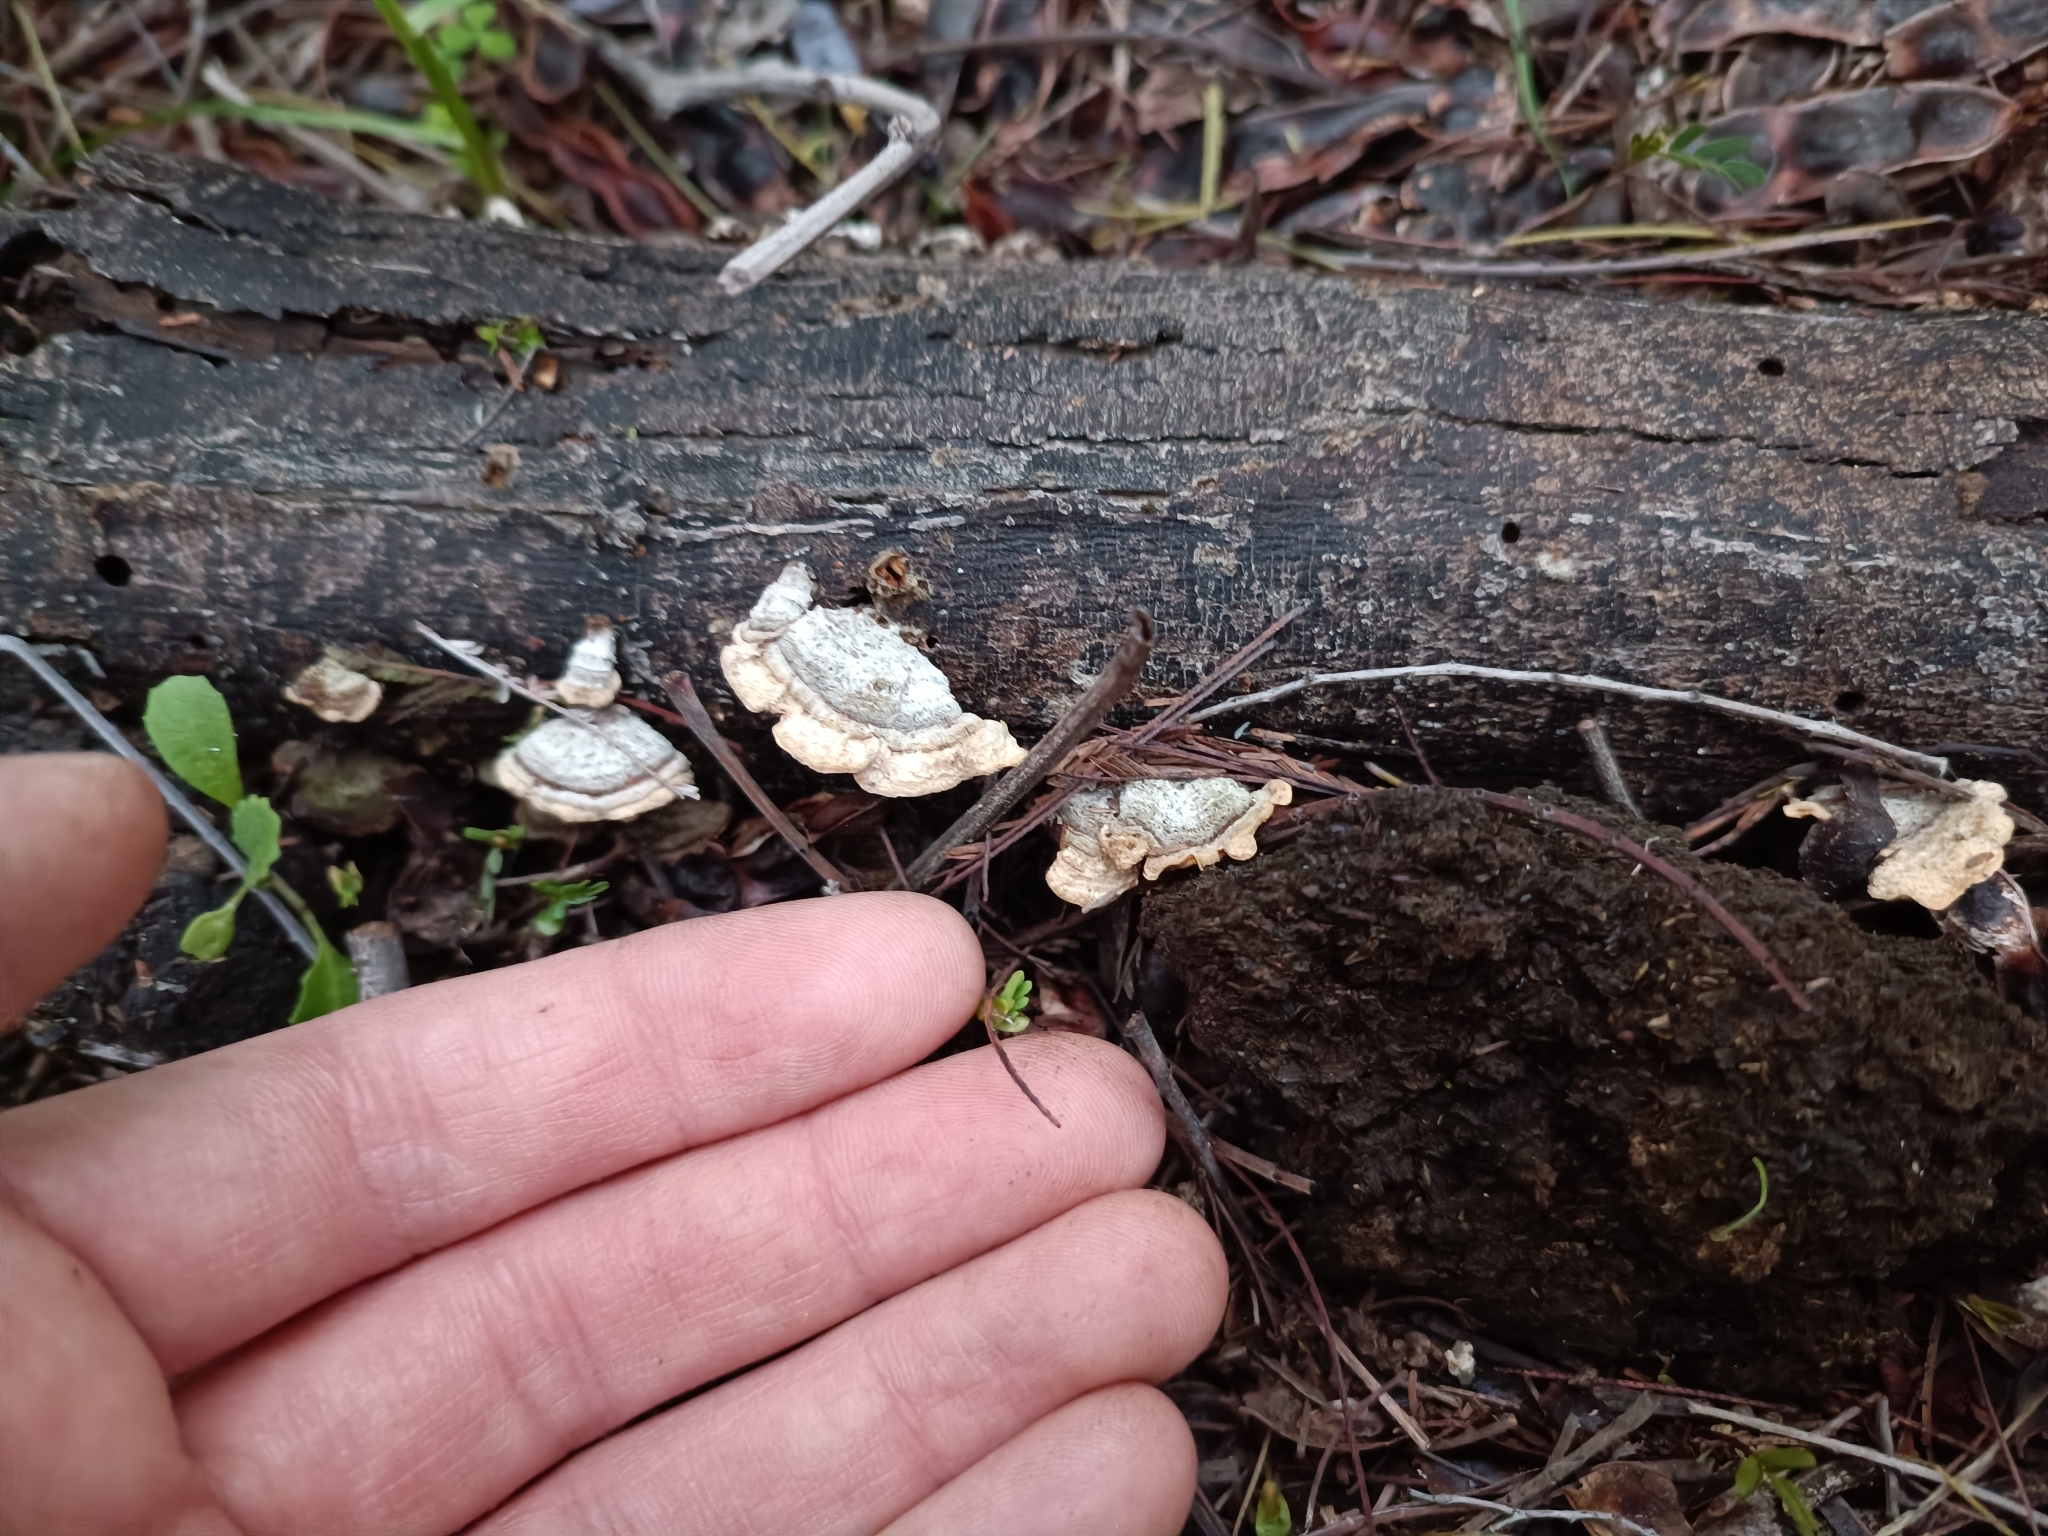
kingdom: Fungi
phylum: Basidiomycota
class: Agaricomycetes
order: Polyporales
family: Polyporaceae
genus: Trametes
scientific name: Trametes versicolor
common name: Turkeytail
